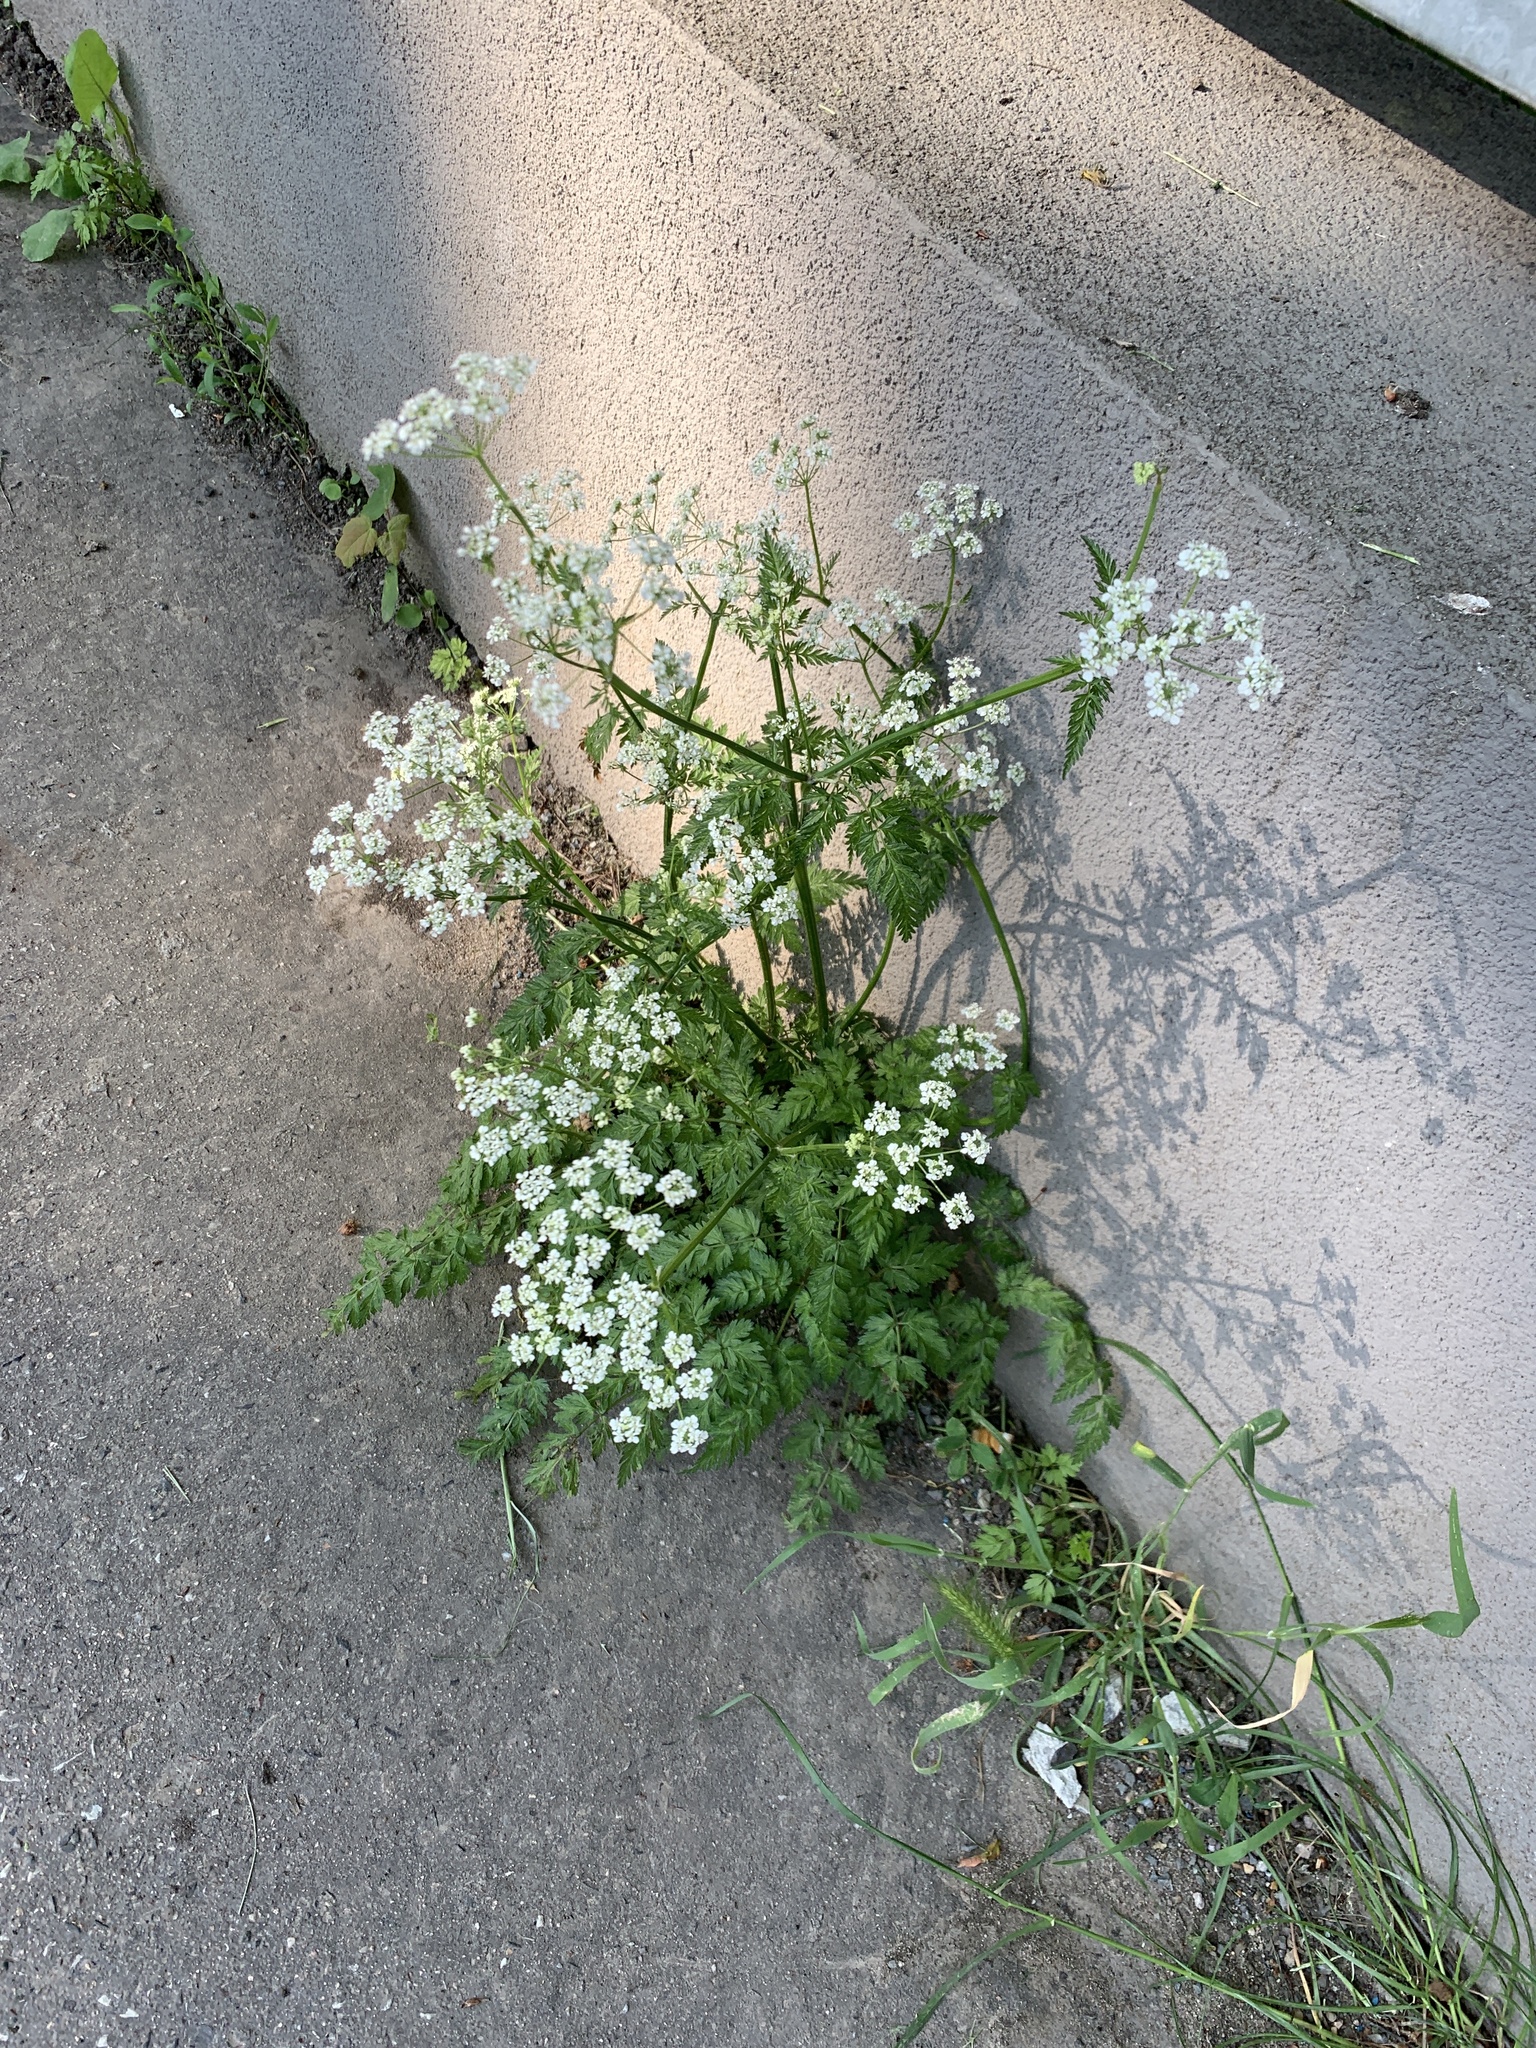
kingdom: Plantae
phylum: Tracheophyta
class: Magnoliopsida
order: Apiales
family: Apiaceae
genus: Anthriscus
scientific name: Anthriscus sylvestris
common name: Cow parsley
